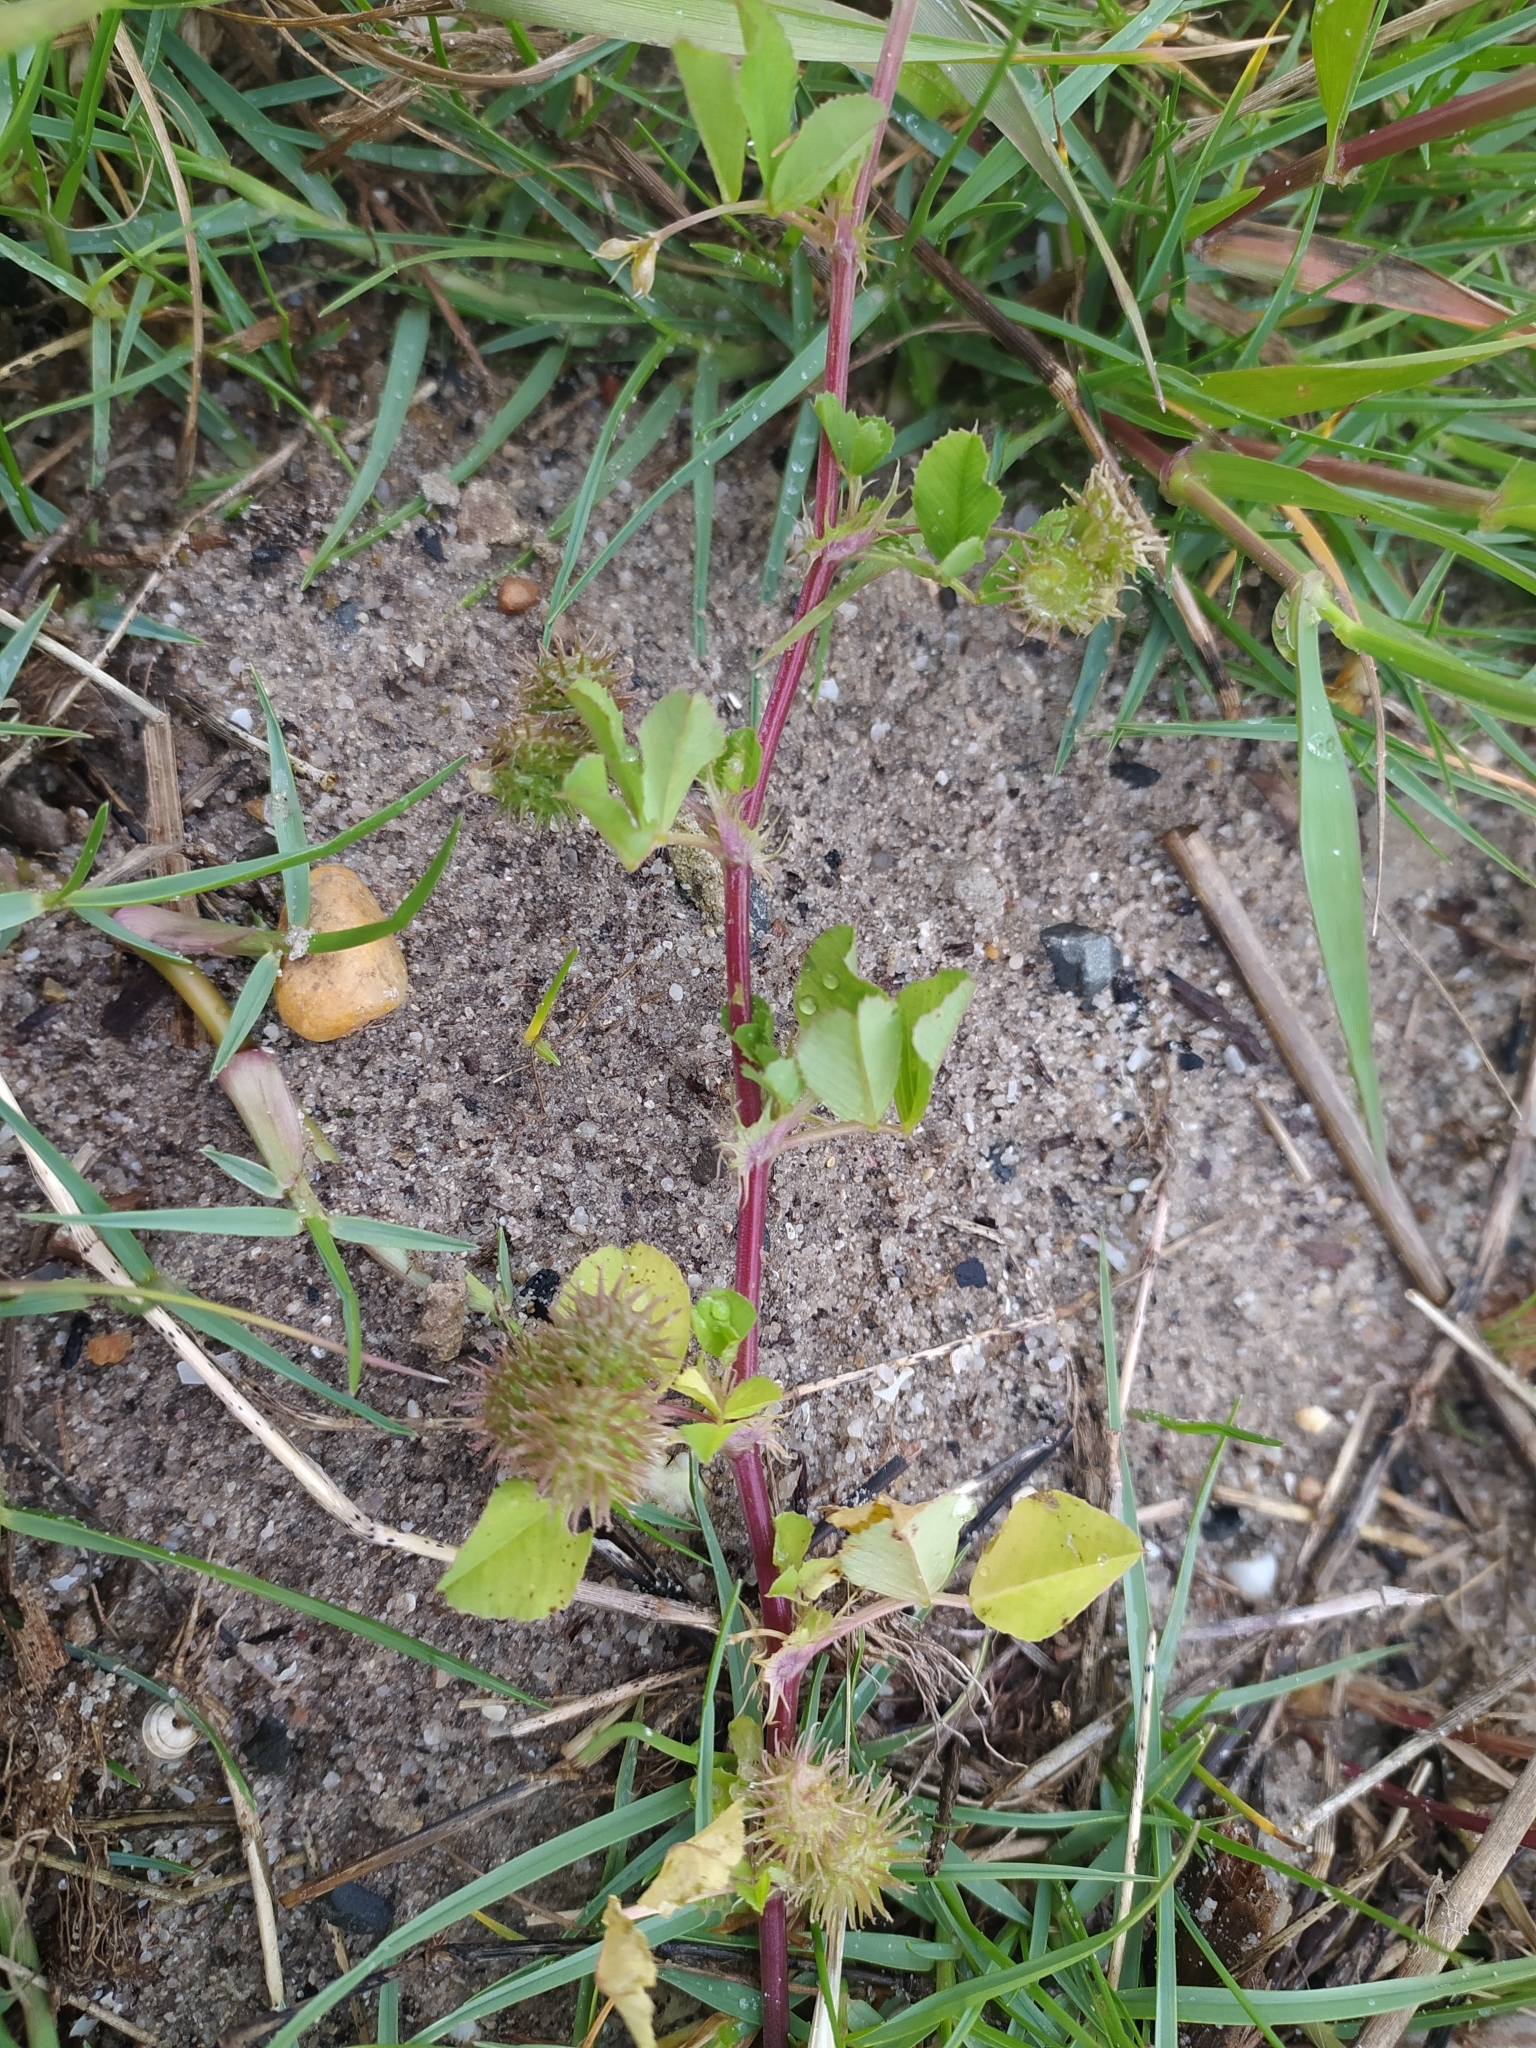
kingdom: Plantae
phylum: Tracheophyta
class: Magnoliopsida
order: Fabales
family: Fabaceae
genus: Medicago
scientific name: Medicago polymorpha
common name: Burclover
